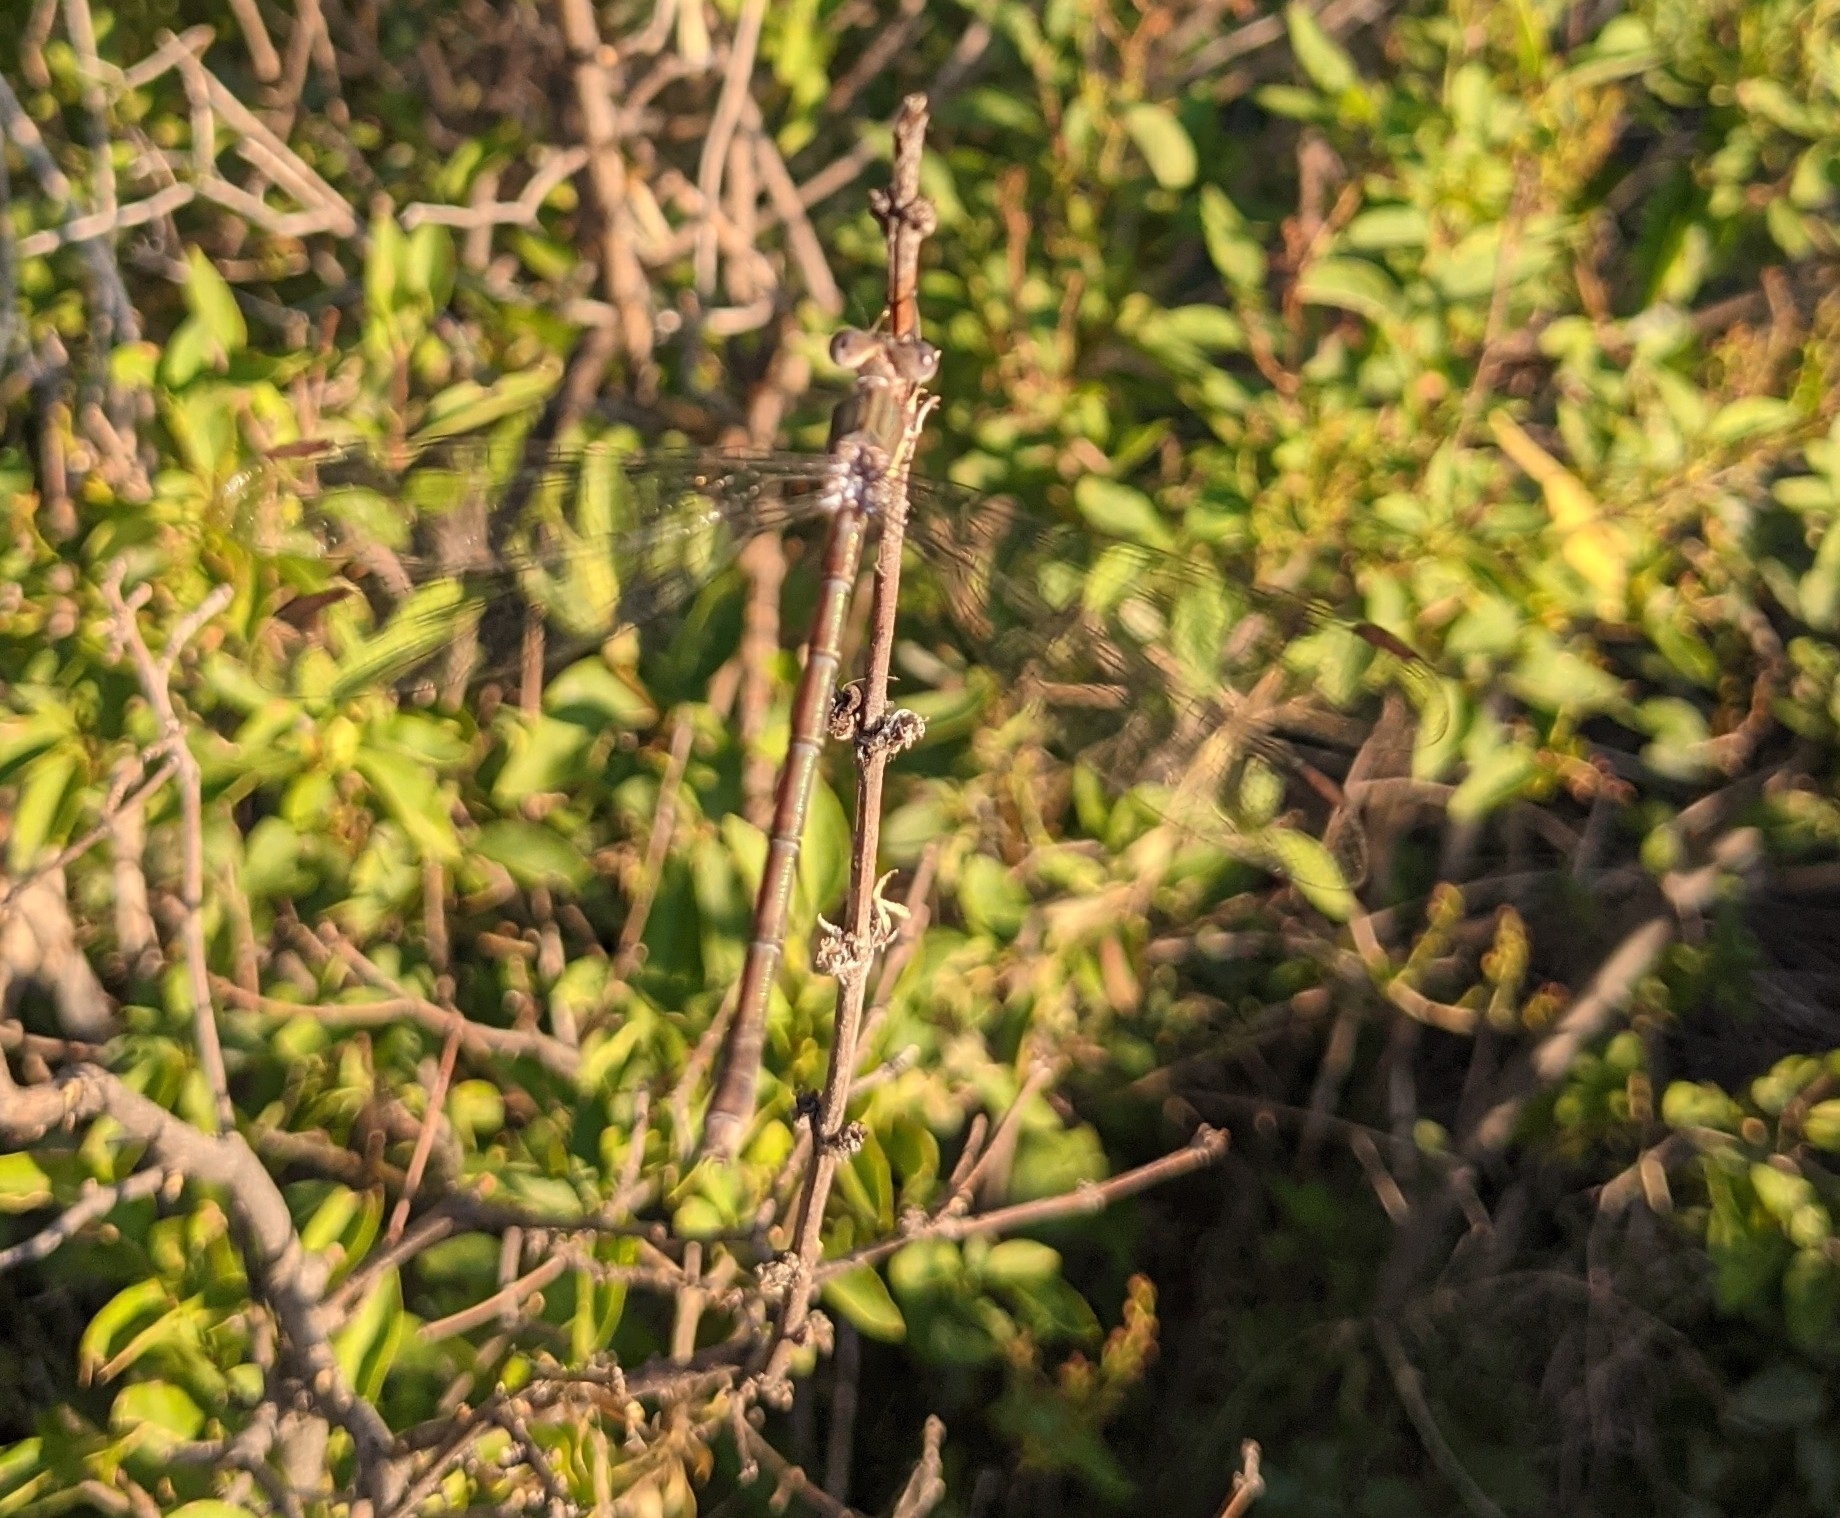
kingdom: Animalia
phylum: Arthropoda
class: Insecta
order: Odonata
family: Lestidae
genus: Archilestes
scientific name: Archilestes grandis
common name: Great spreadwing
